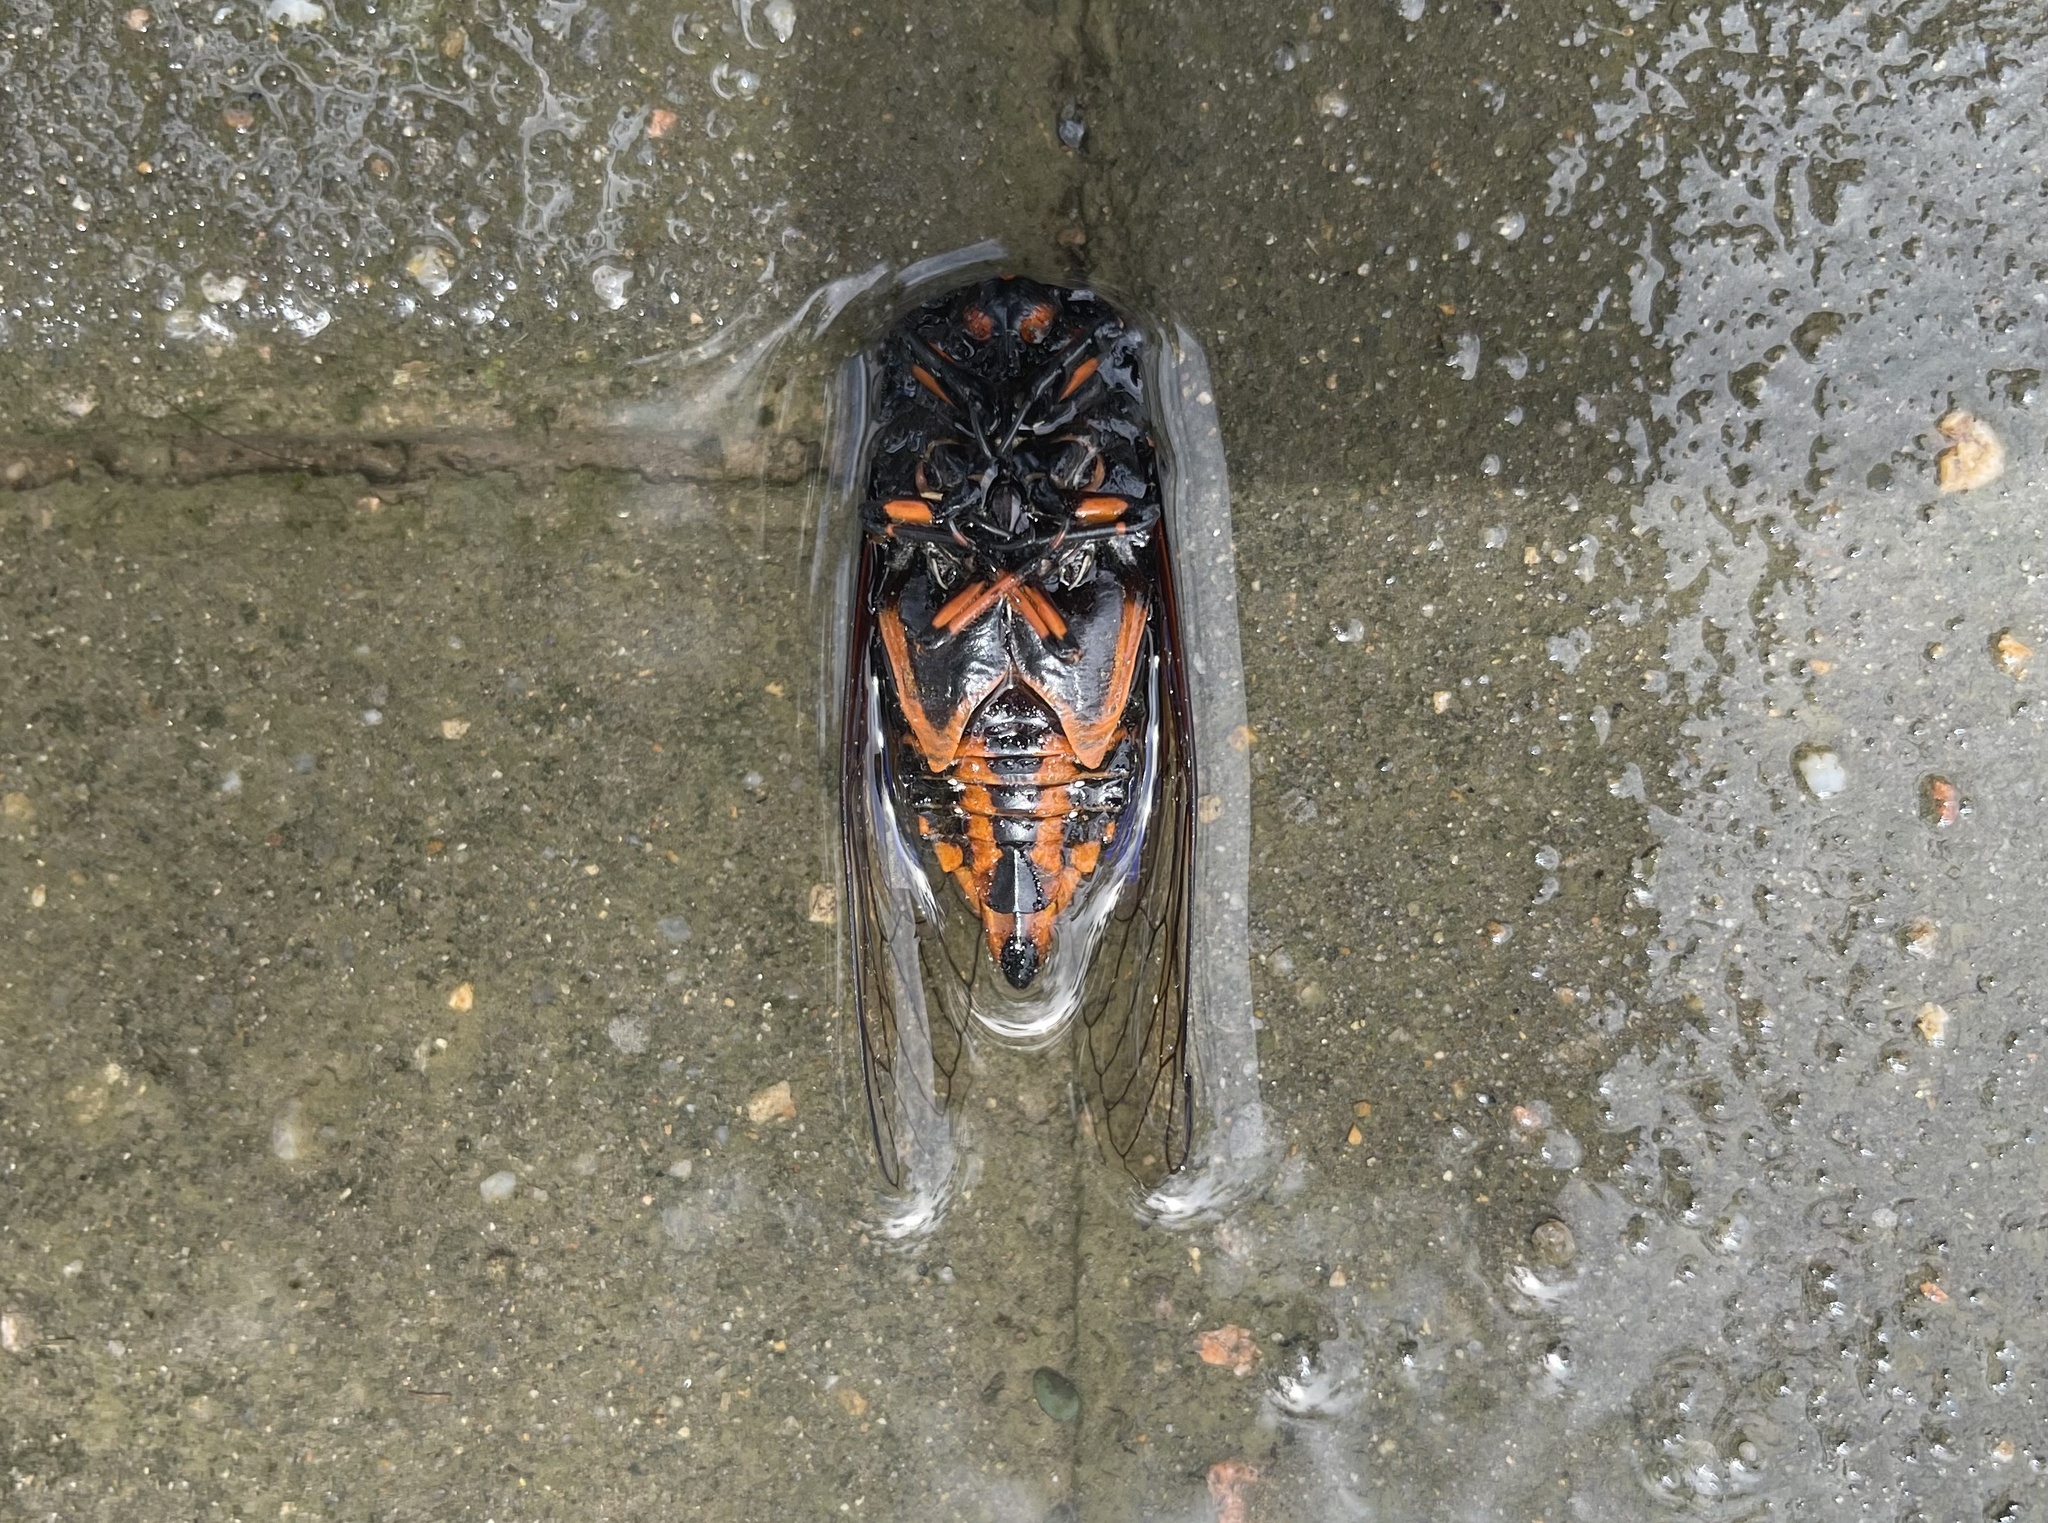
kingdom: Animalia
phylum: Arthropoda
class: Insecta
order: Hemiptera
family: Cicadidae
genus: Cryptotympana
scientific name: Cryptotympana mandarina
